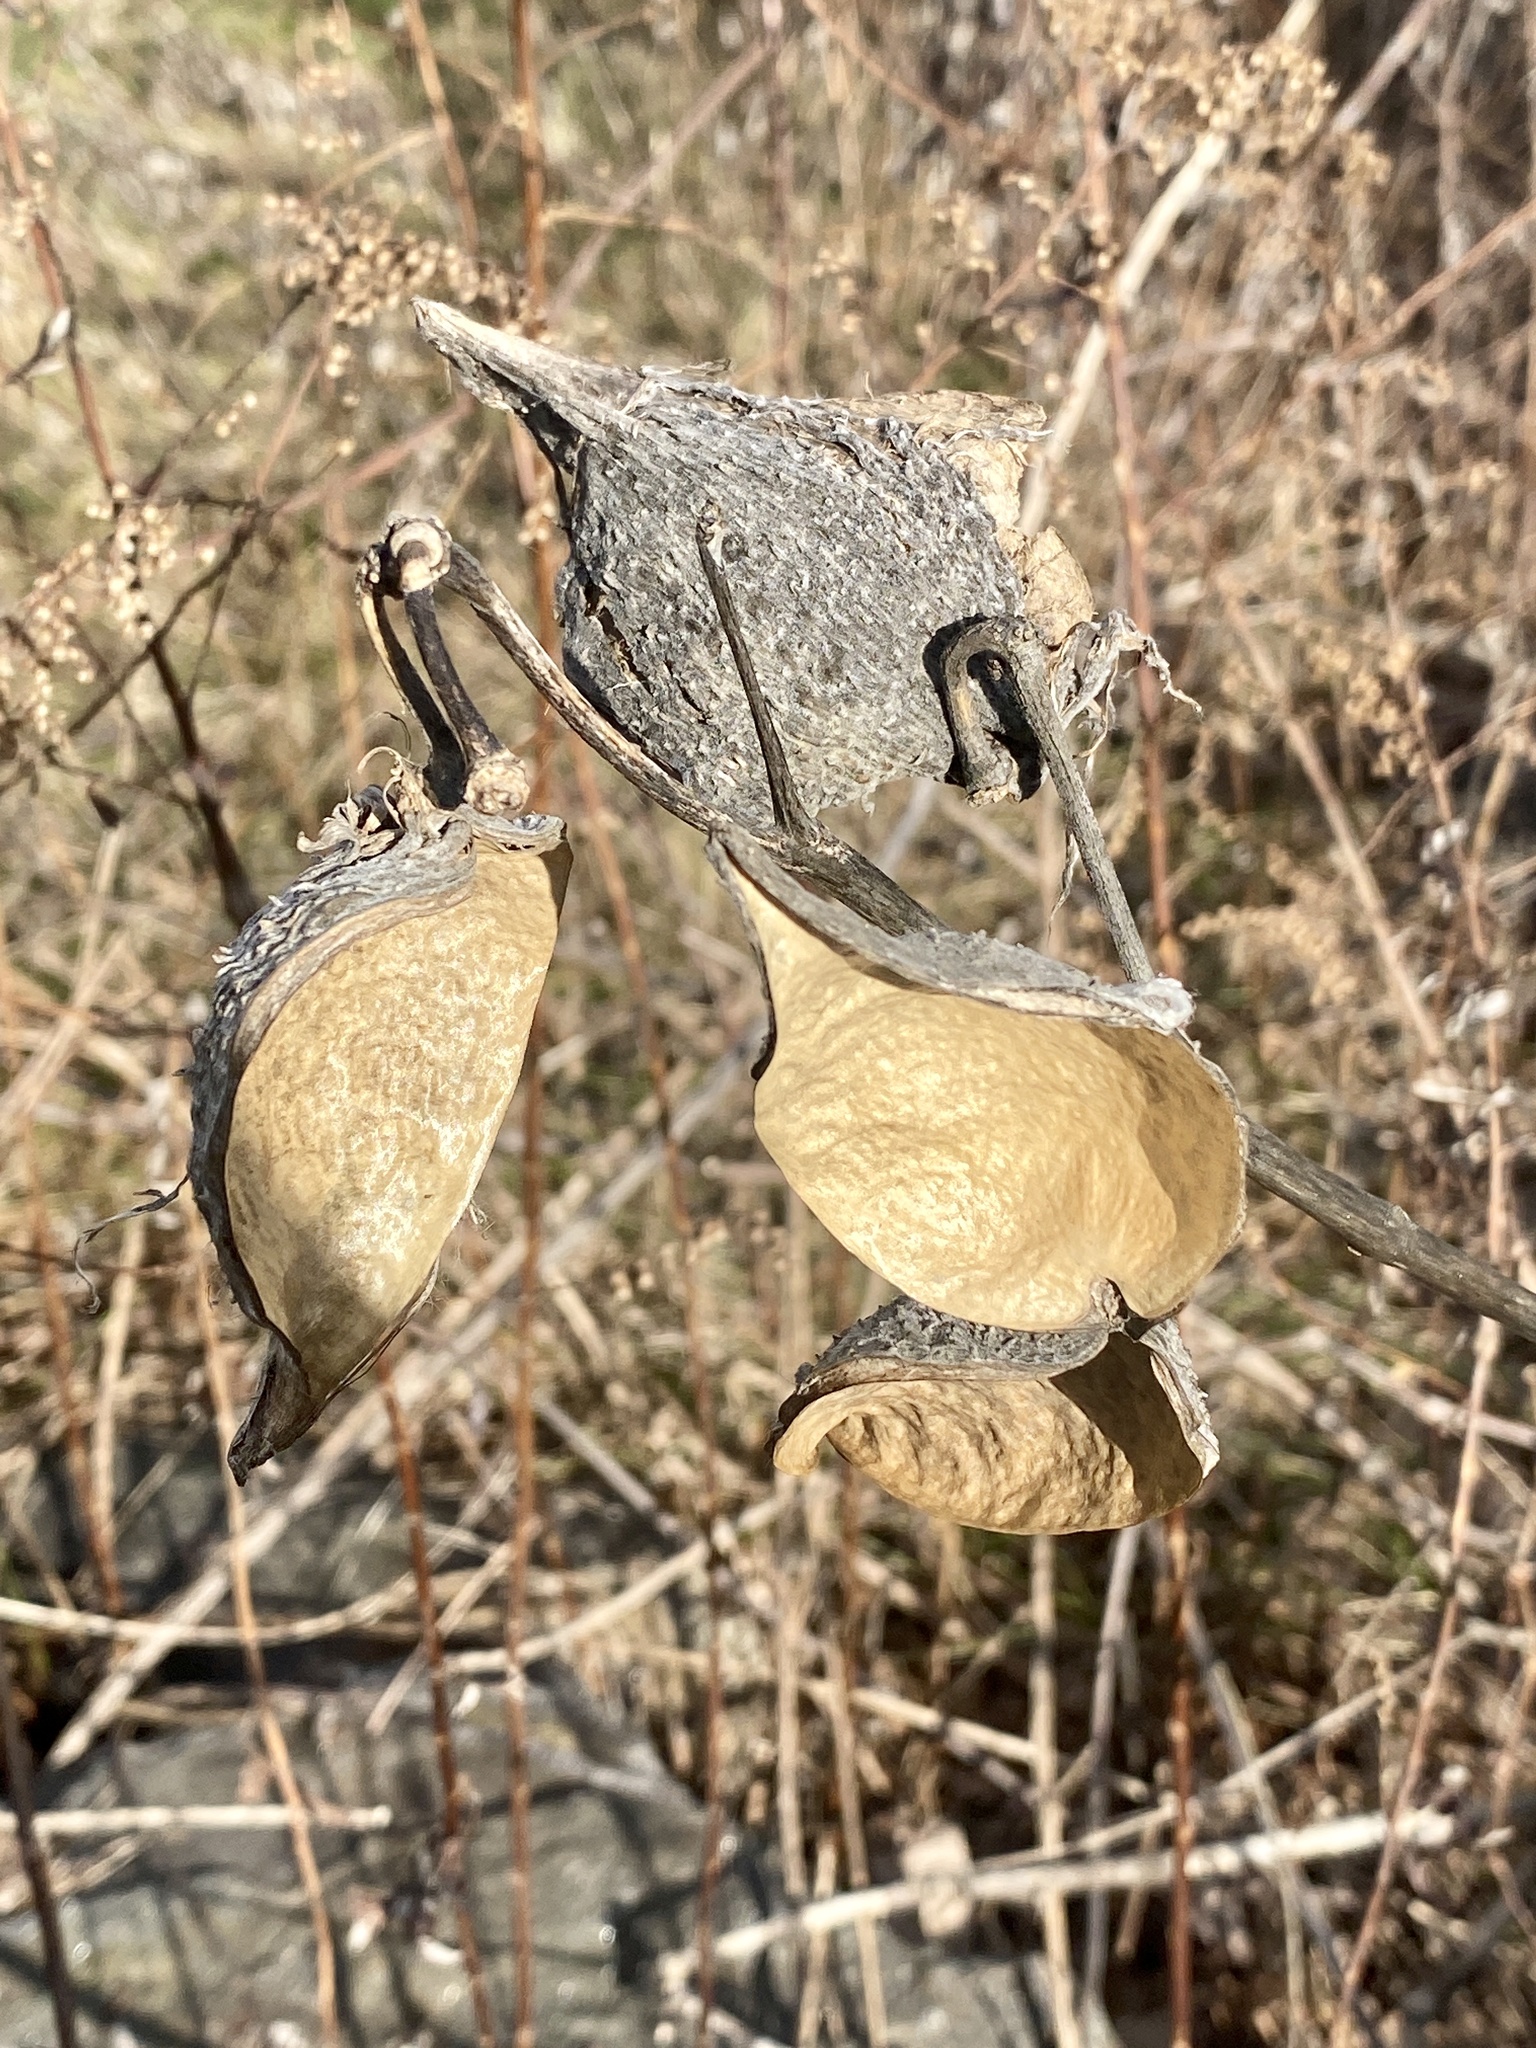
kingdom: Plantae
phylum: Tracheophyta
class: Magnoliopsida
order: Gentianales
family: Apocynaceae
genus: Asclepias
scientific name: Asclepias syriaca
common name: Common milkweed
